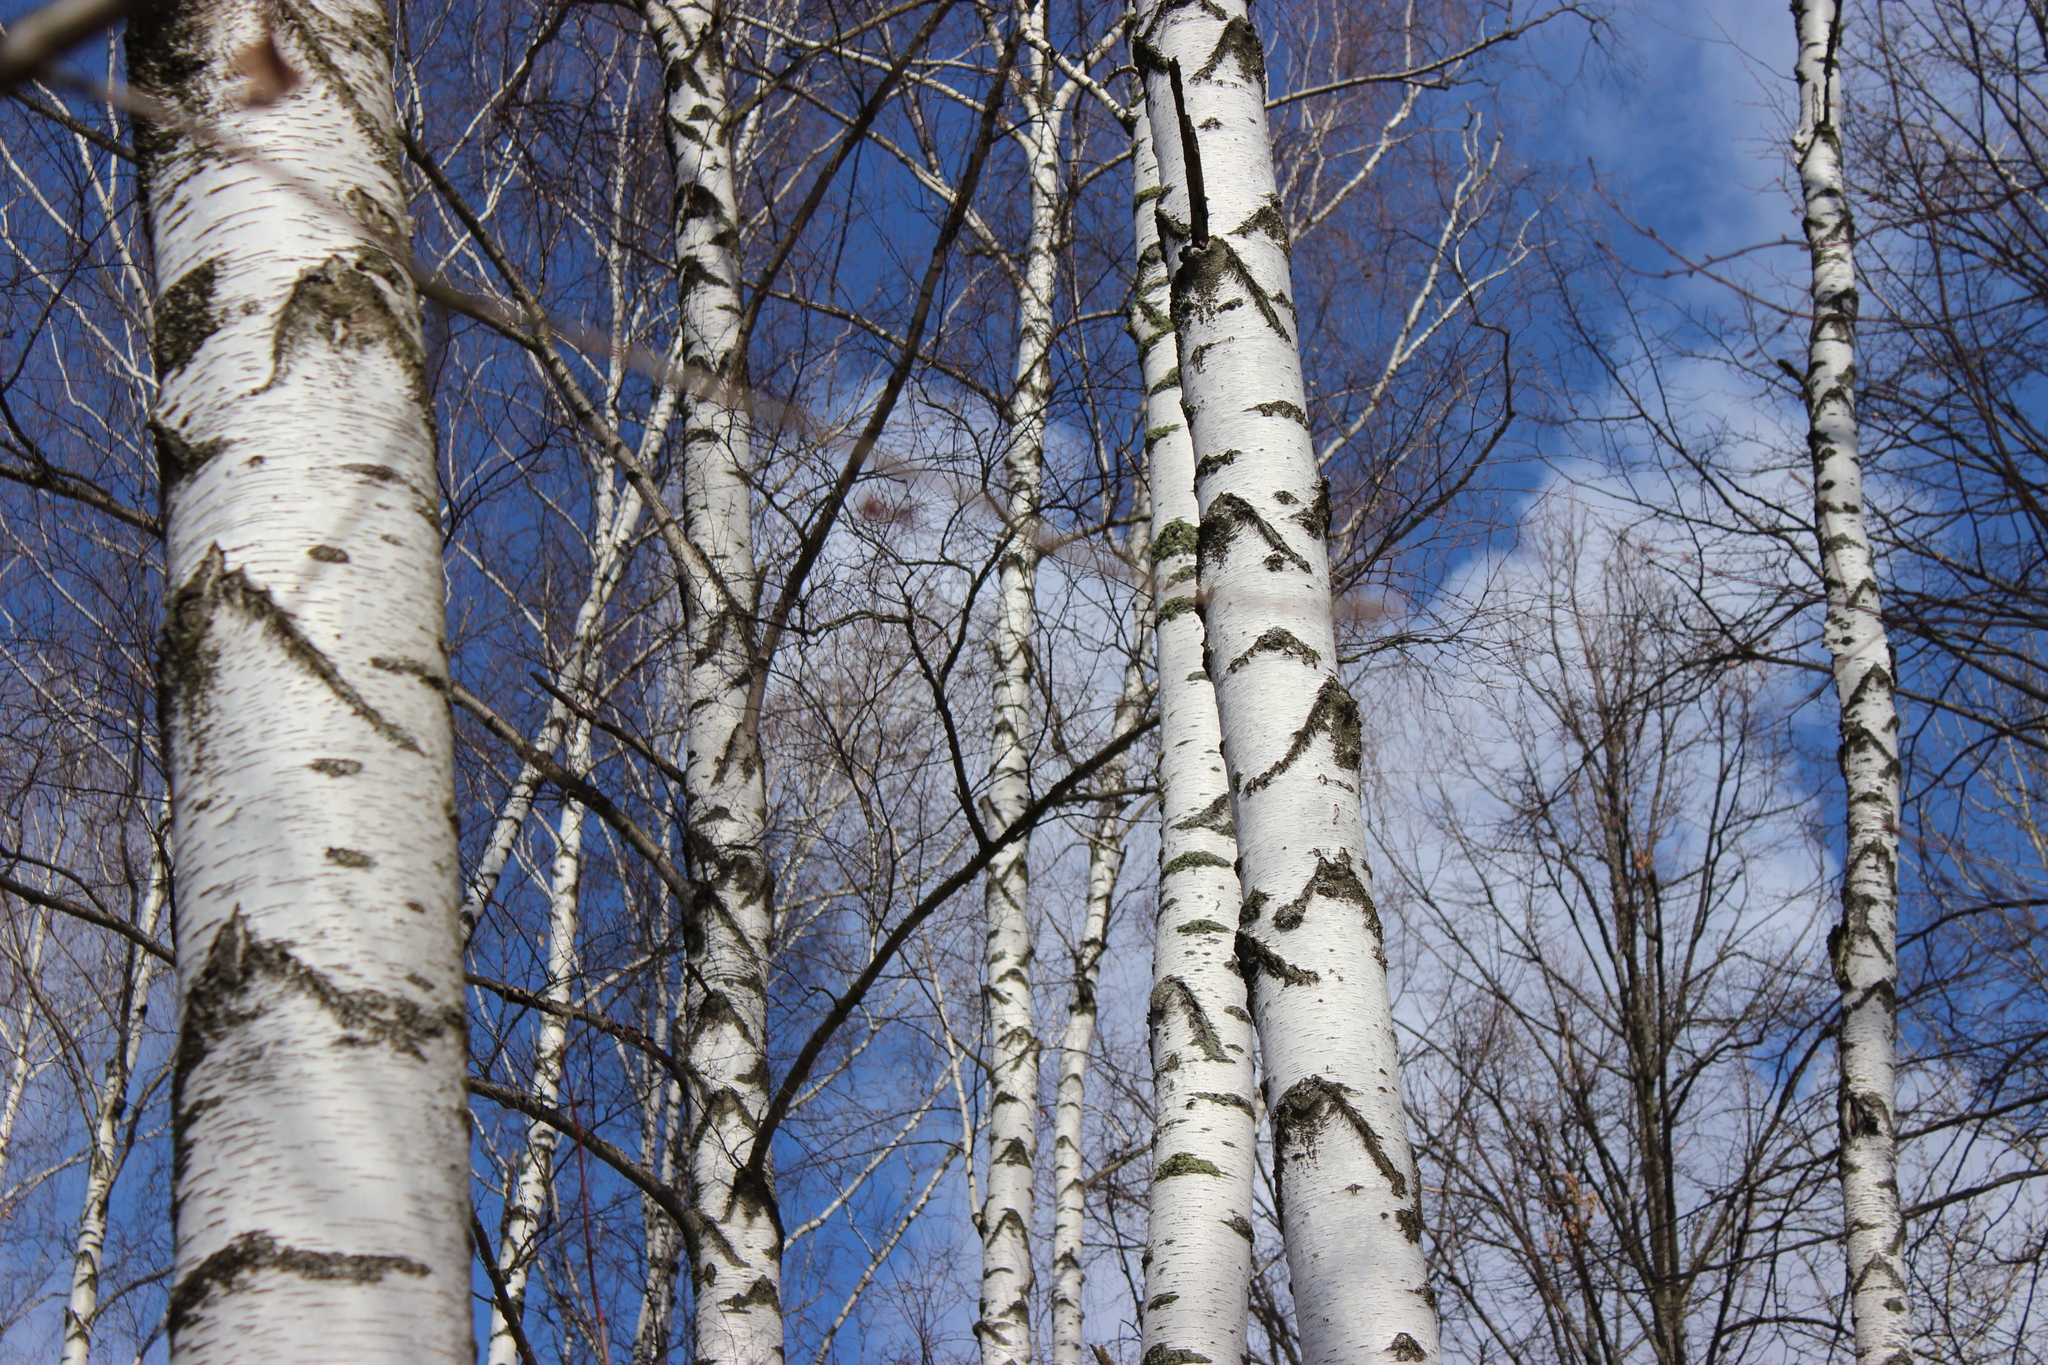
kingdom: Plantae
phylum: Tracheophyta
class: Magnoliopsida
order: Fagales
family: Betulaceae
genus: Betula
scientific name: Betula pendula
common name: Silver birch
